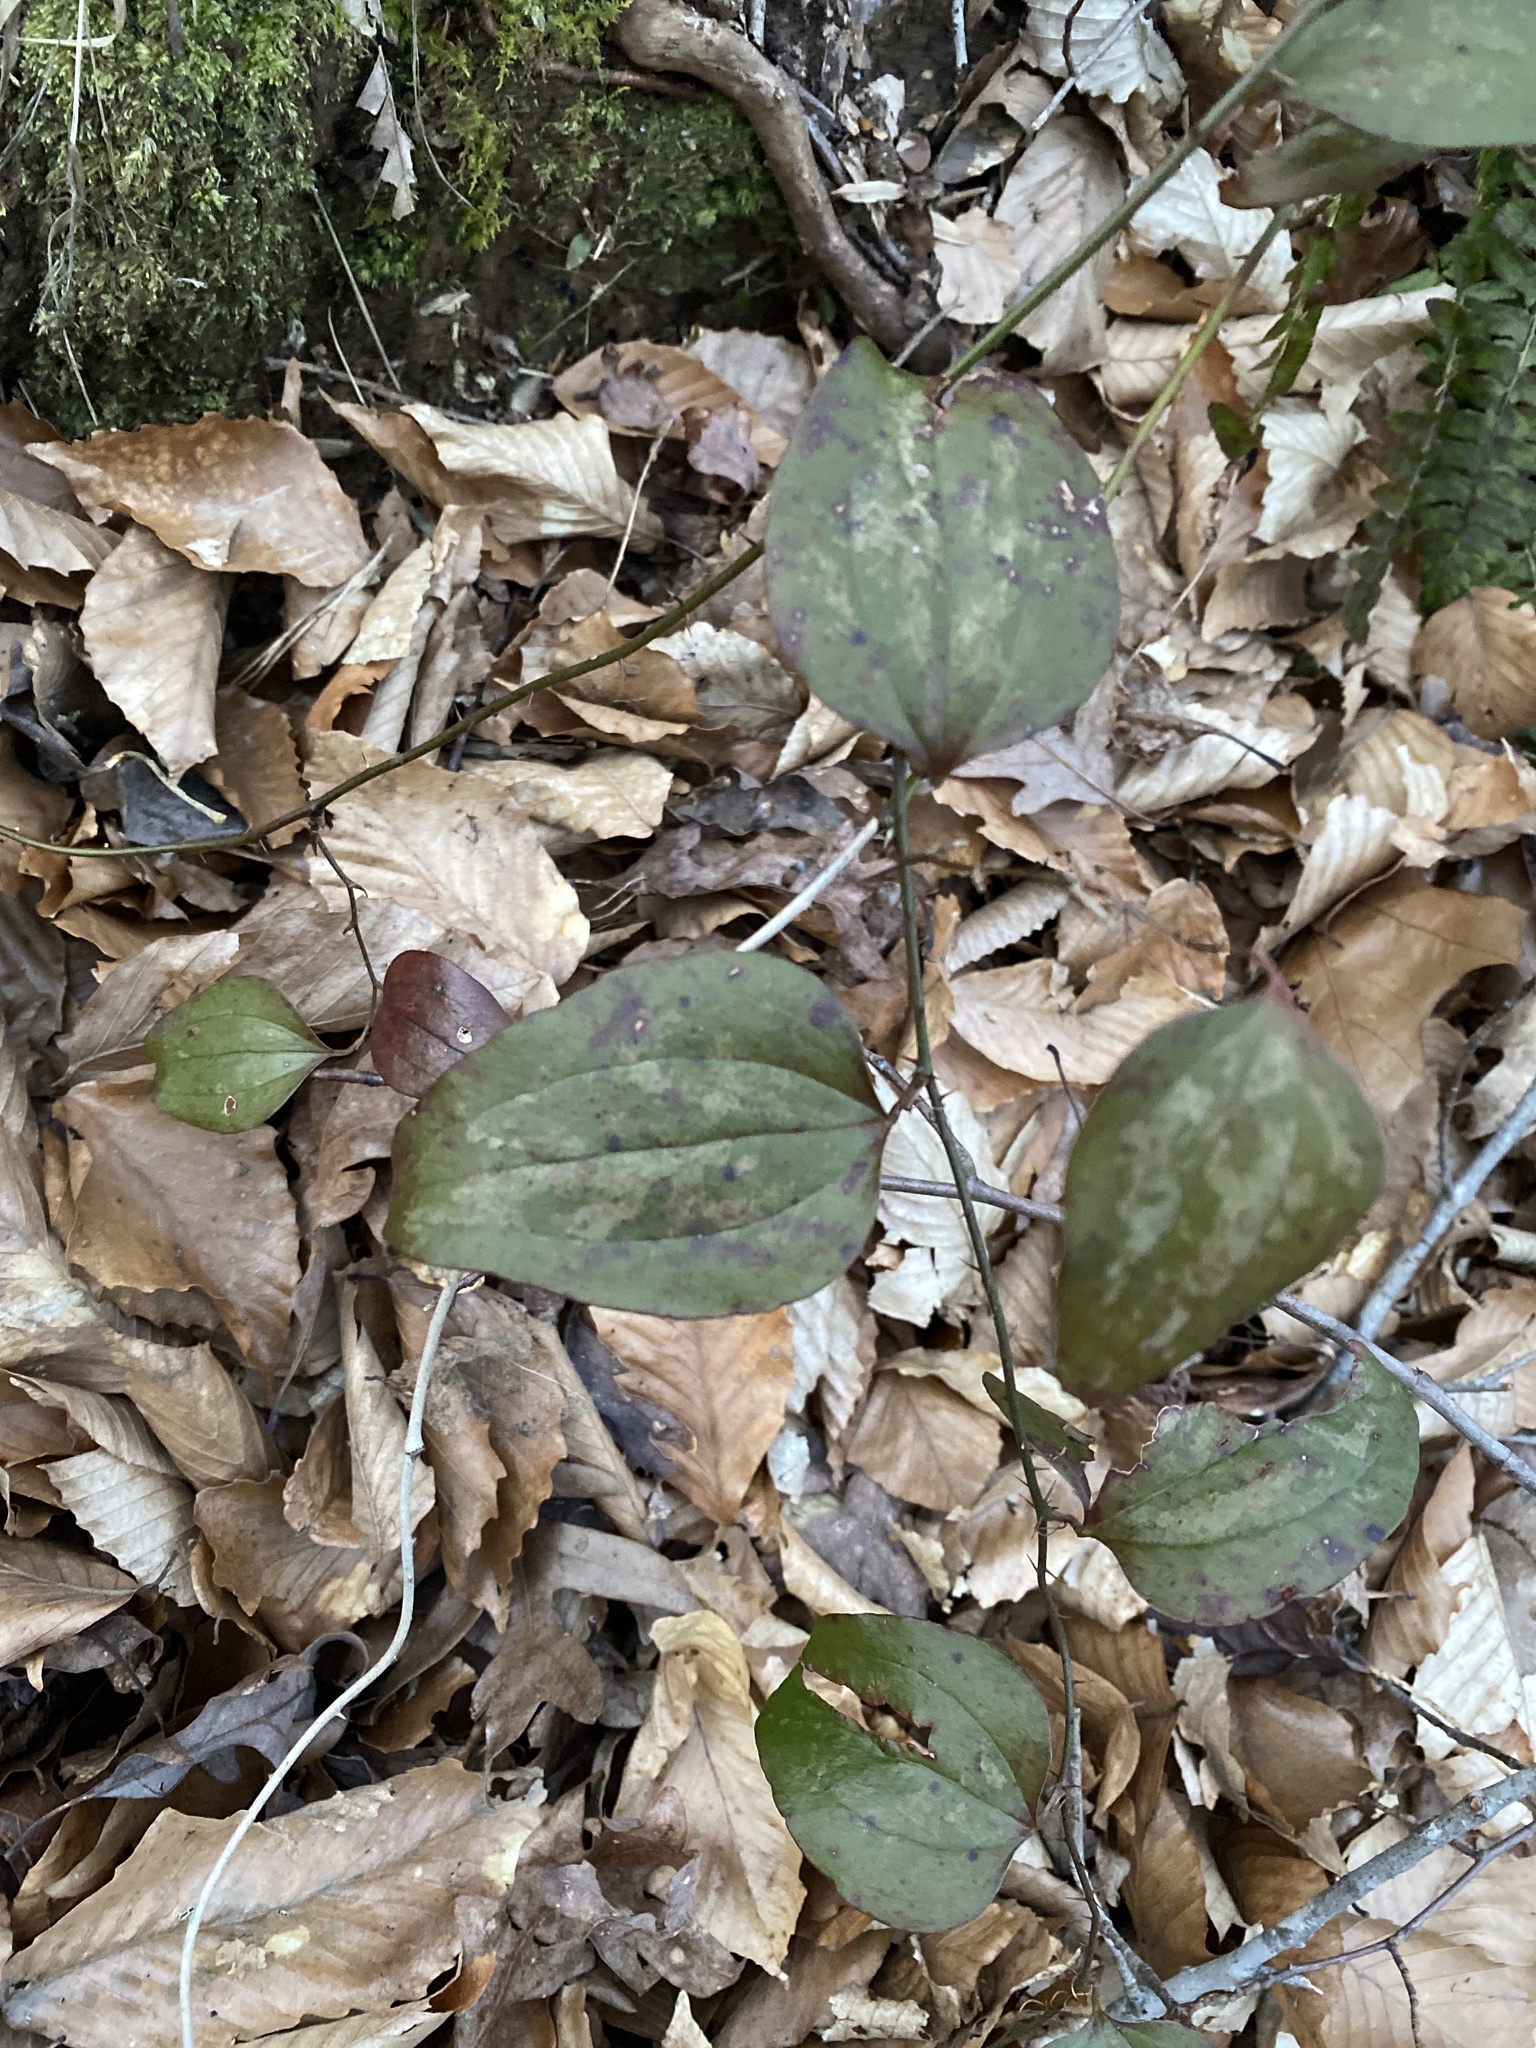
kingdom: Plantae
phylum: Tracheophyta
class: Liliopsida
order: Liliales
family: Smilacaceae
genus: Smilax
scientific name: Smilax glauca
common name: Cat greenbrier
